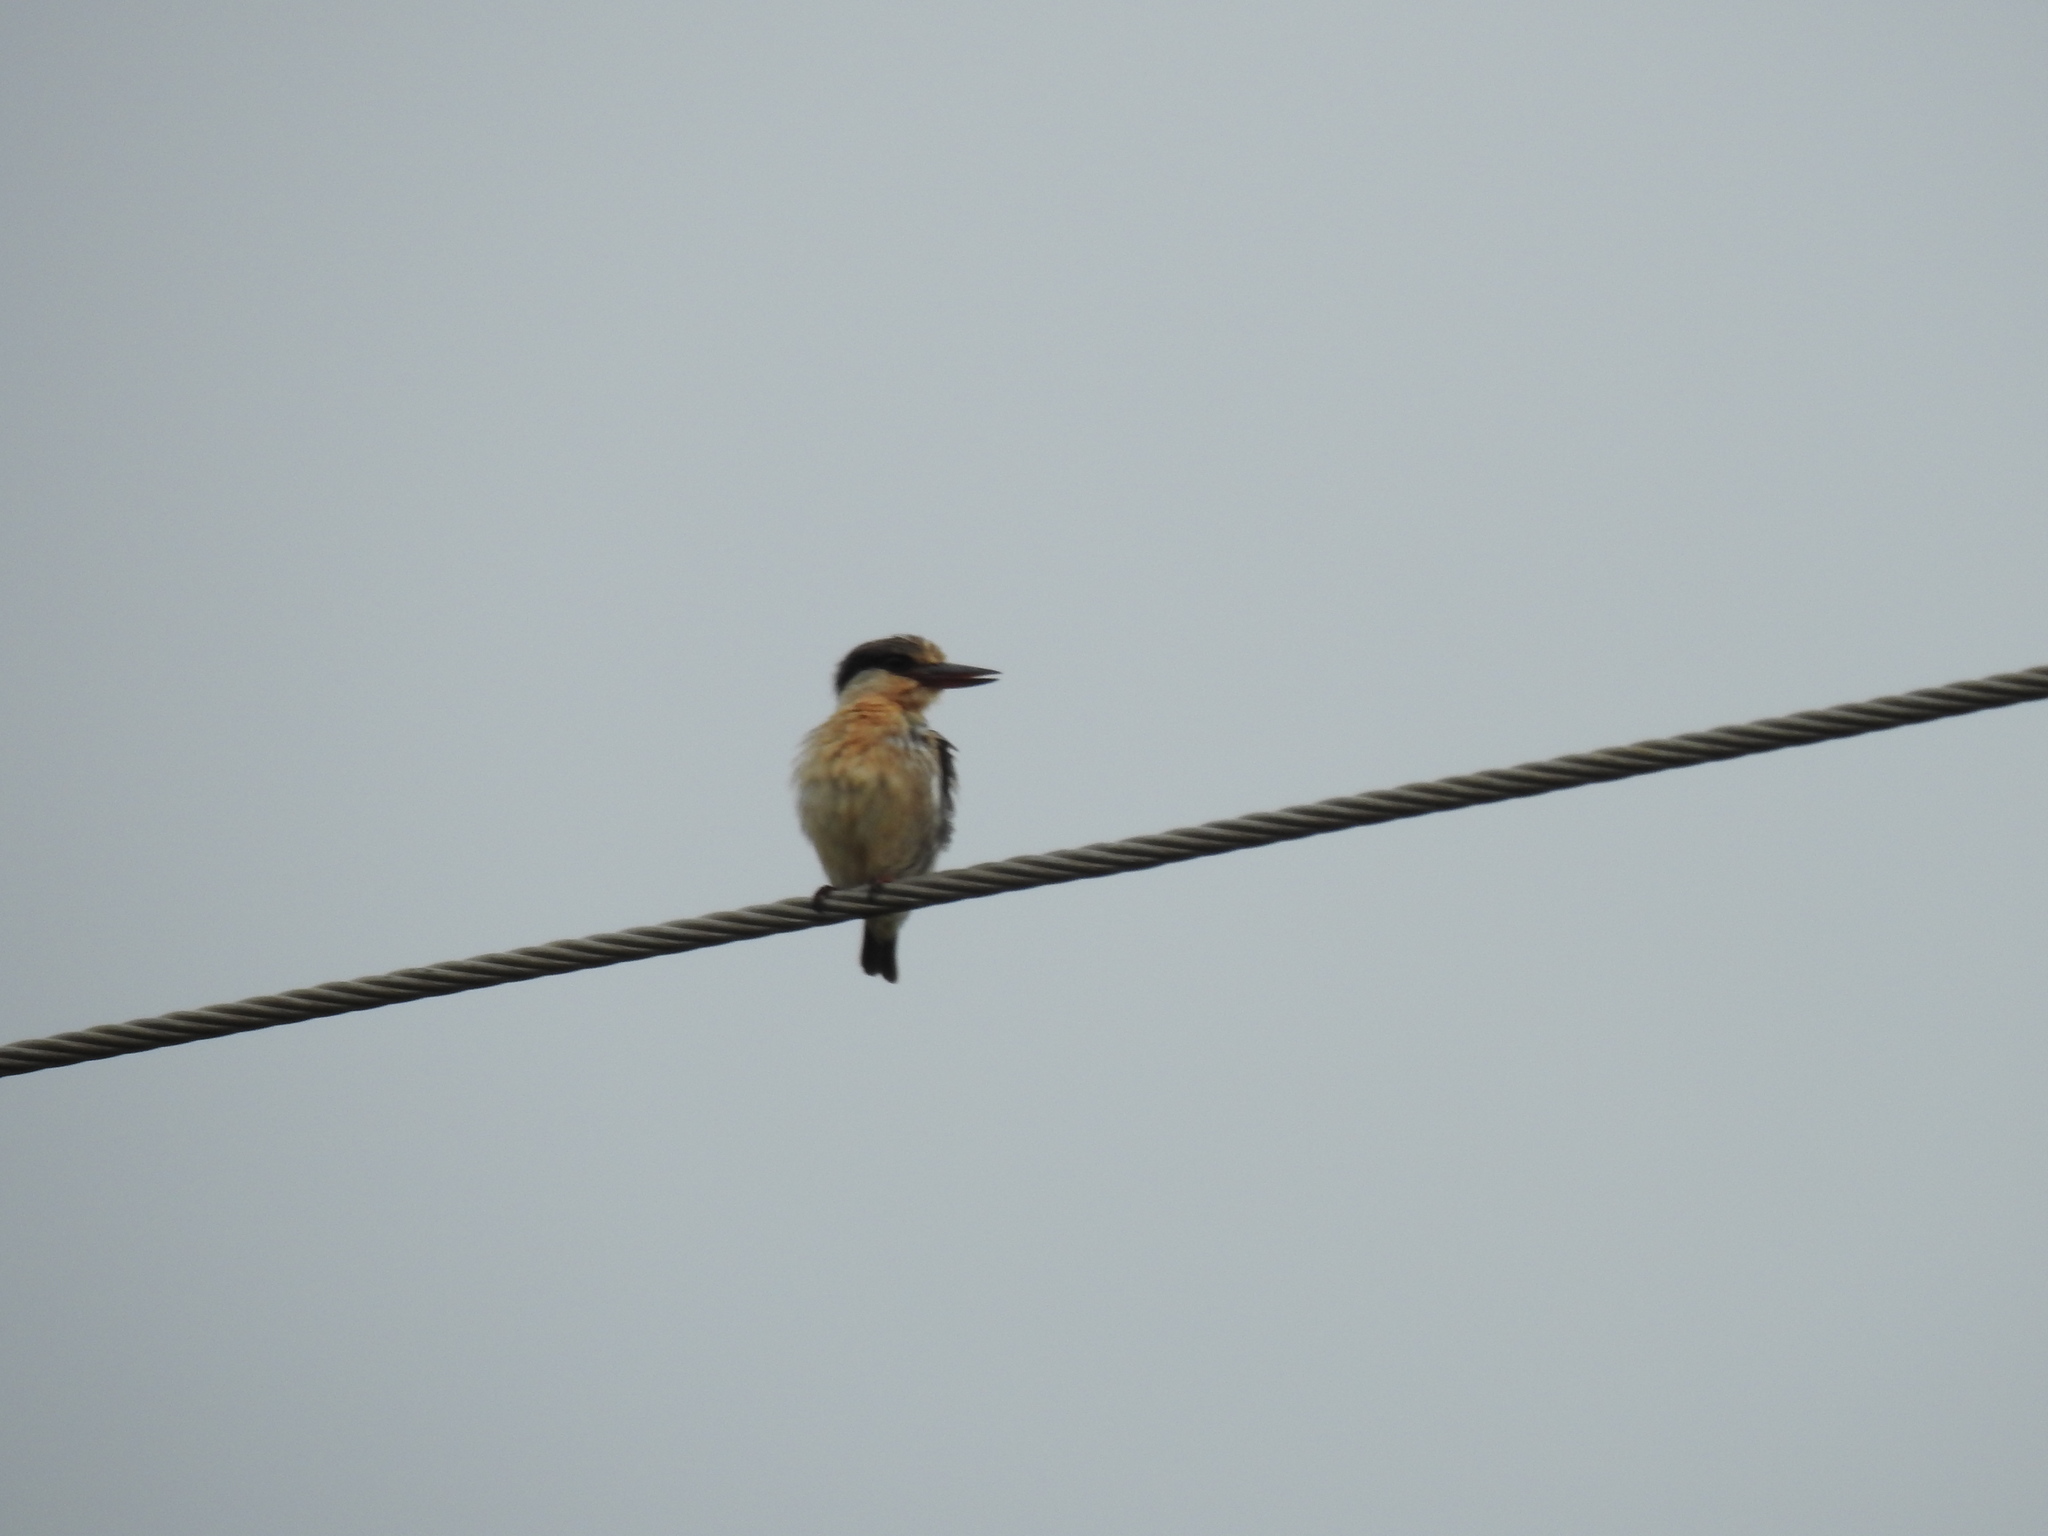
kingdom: Animalia
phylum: Chordata
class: Aves
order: Coraciiformes
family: Alcedinidae
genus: Halcyon
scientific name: Halcyon chelicuti
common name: Striped kingfisher
